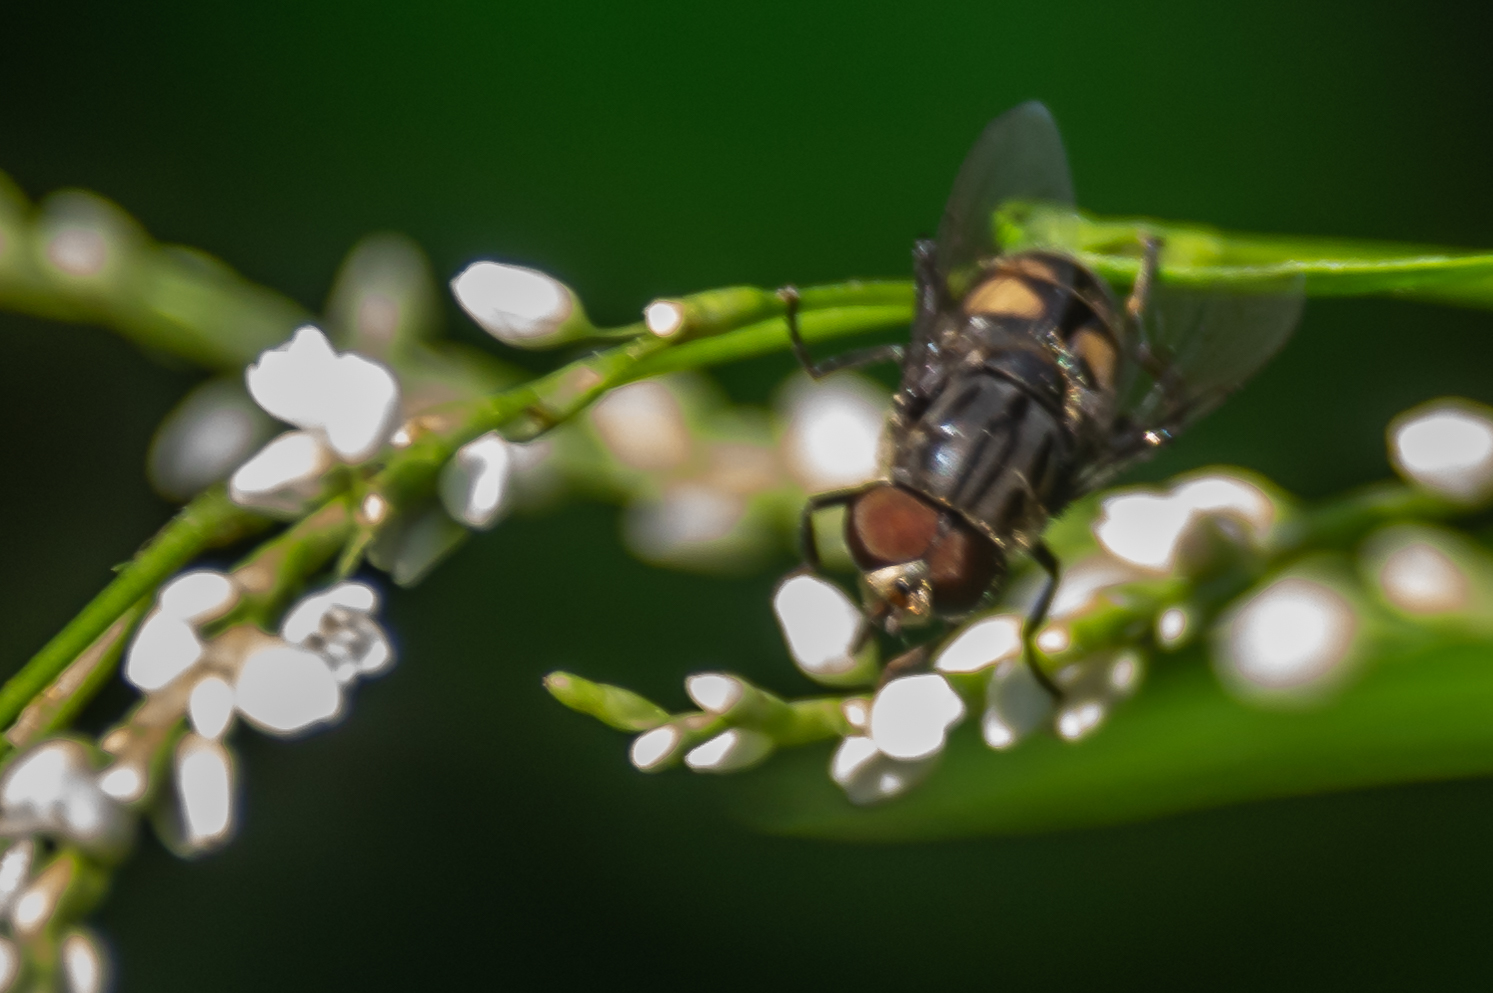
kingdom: Animalia
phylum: Arthropoda
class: Insecta
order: Diptera
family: Syrphidae
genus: Palpada
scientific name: Palpada furcata
